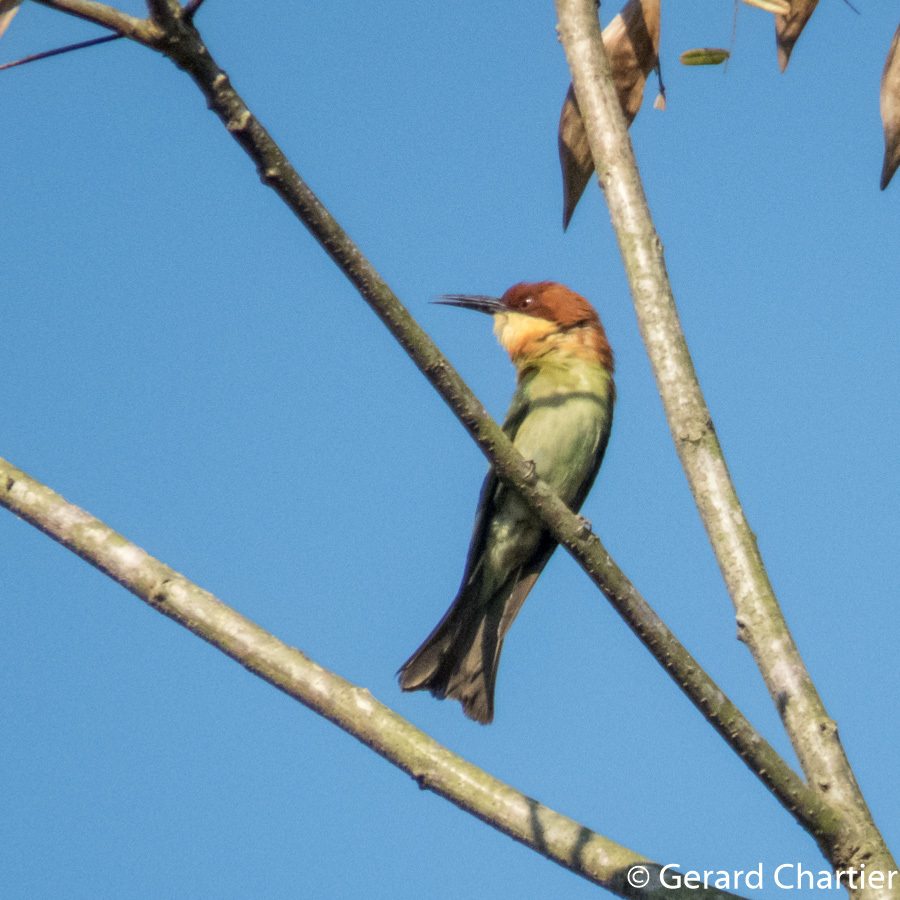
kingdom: Animalia
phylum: Chordata
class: Aves
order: Coraciiformes
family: Meropidae
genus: Merops
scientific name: Merops leschenaulti
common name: Chestnut-headed bee-eater
